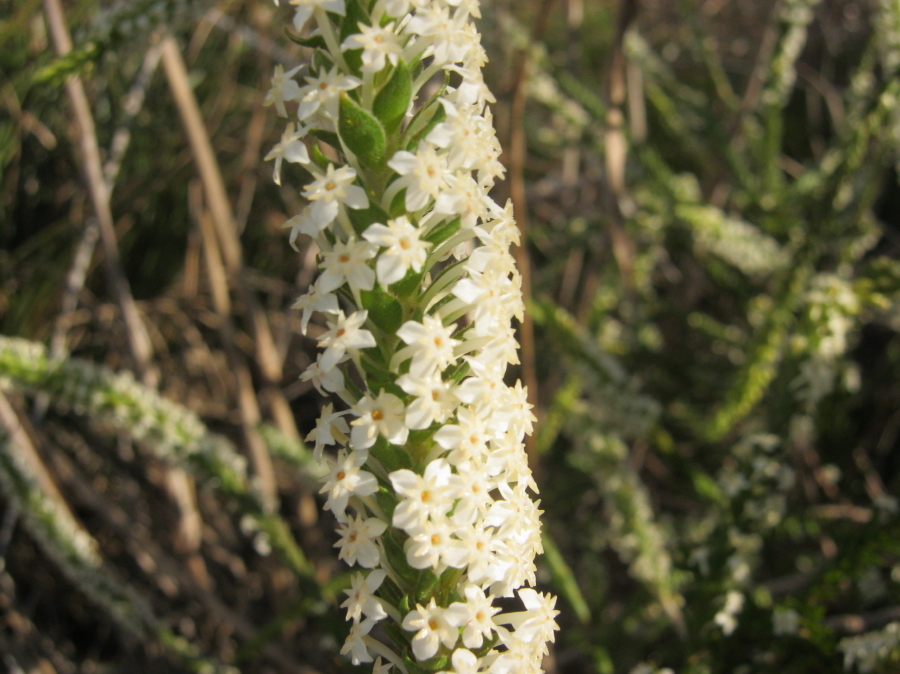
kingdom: Plantae
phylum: Tracheophyta
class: Magnoliopsida
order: Malvales
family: Thymelaeaceae
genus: Struthiola
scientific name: Struthiola hirsuta
